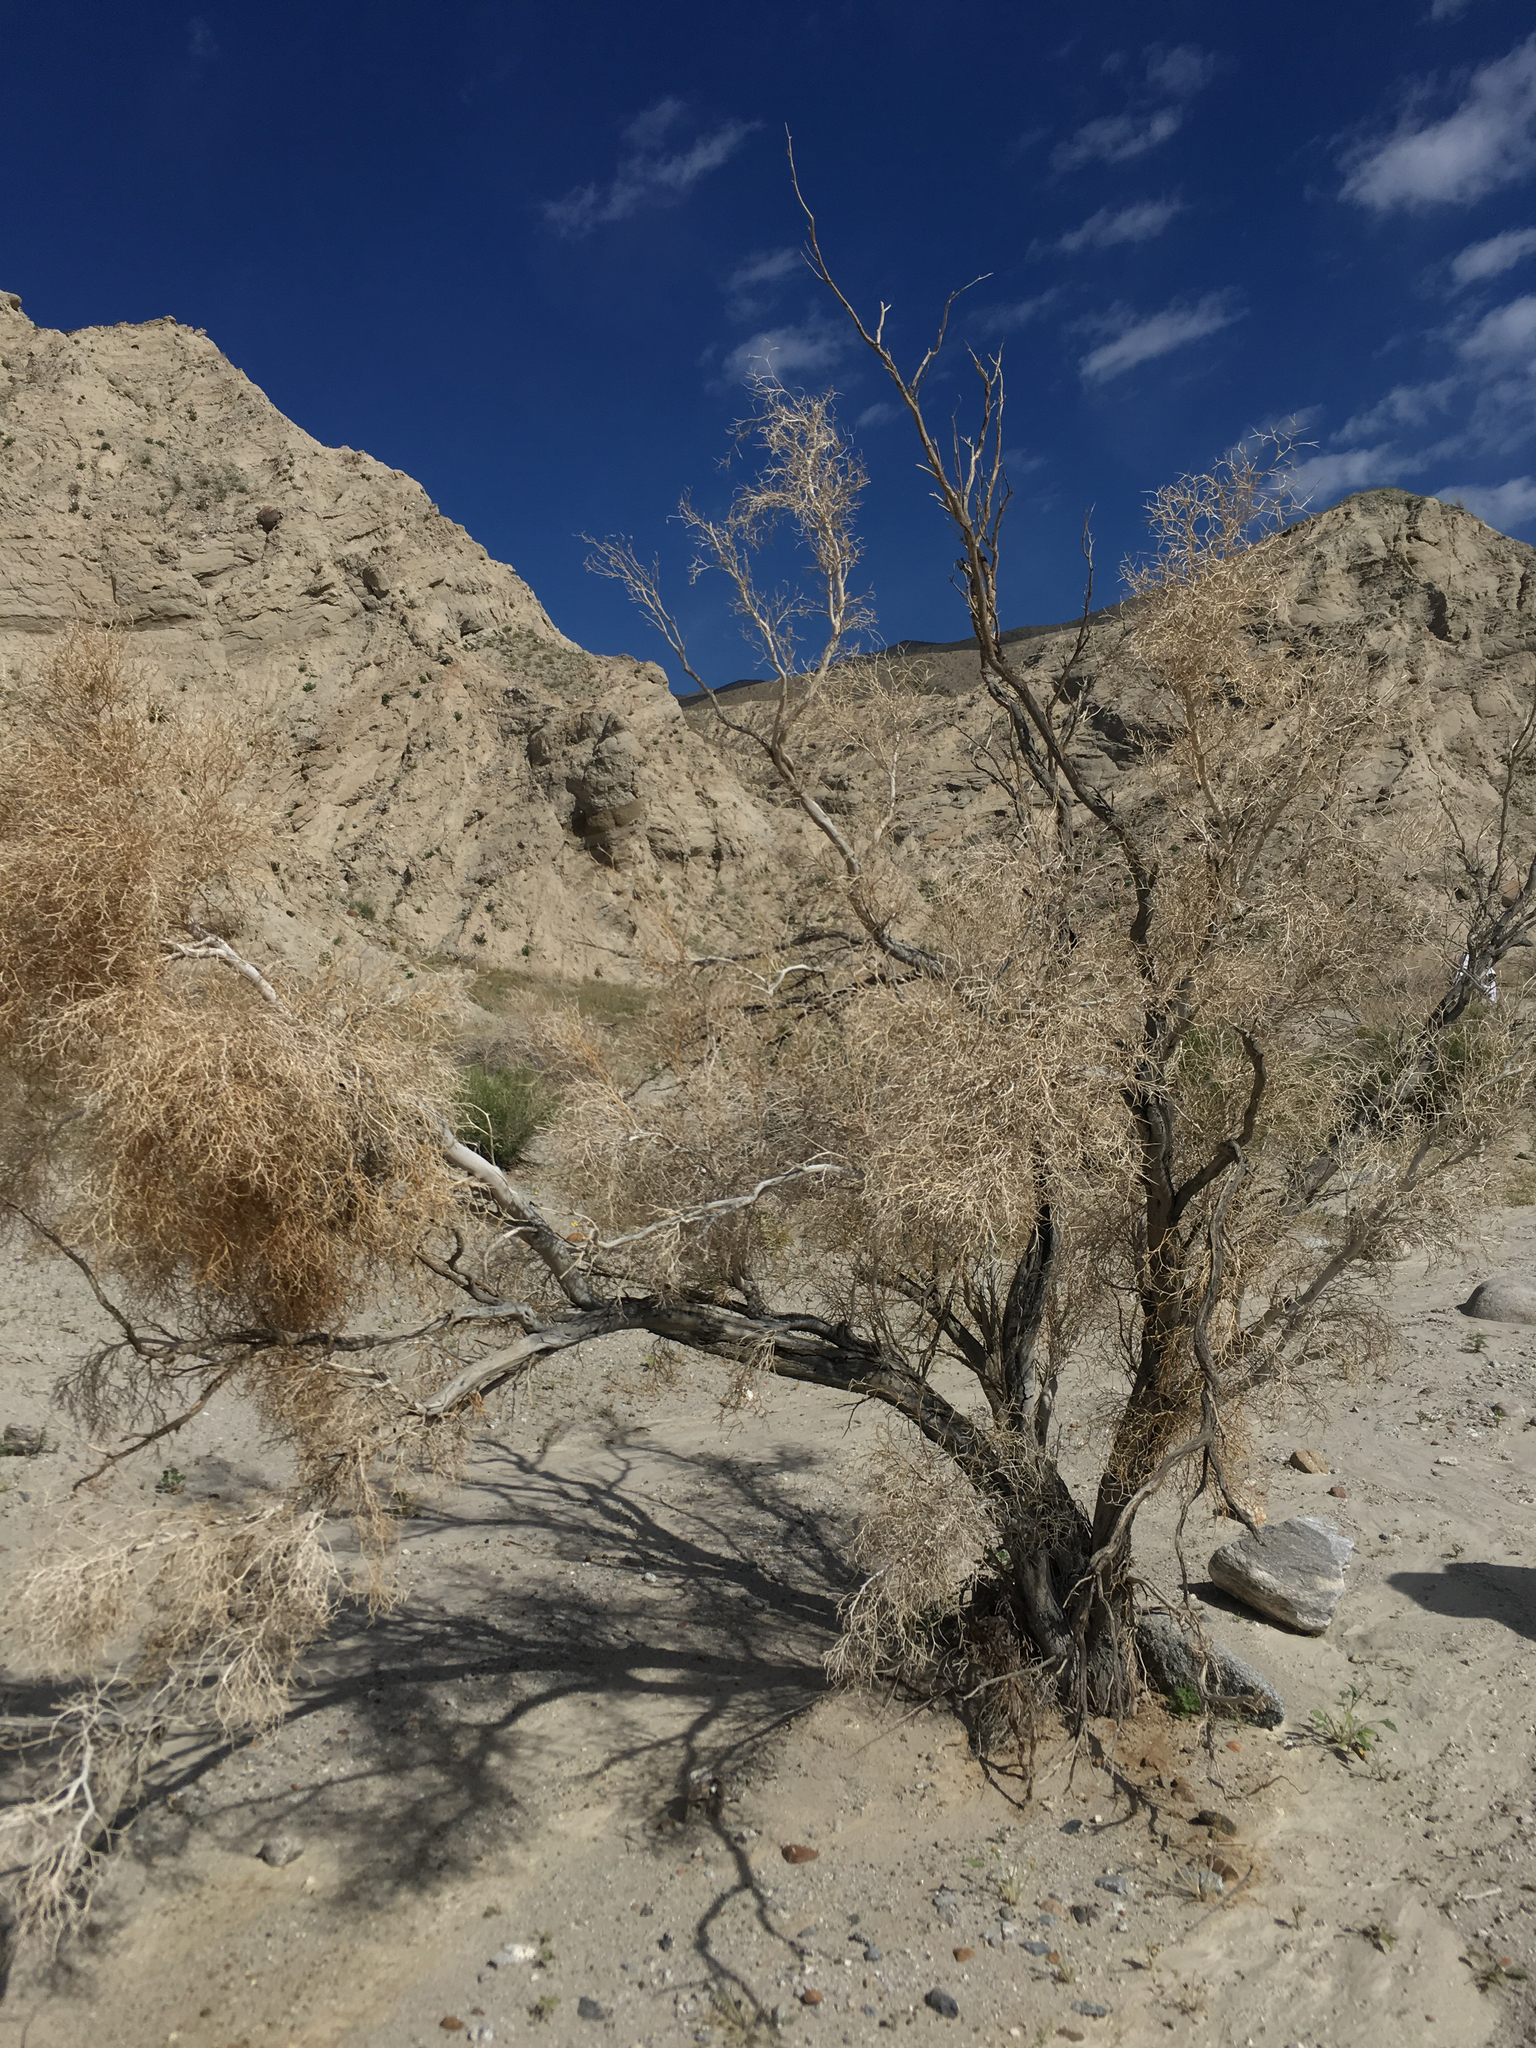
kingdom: Plantae
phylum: Tracheophyta
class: Magnoliopsida
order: Fabales
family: Fabaceae
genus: Psorothamnus
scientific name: Psorothamnus spinosus
